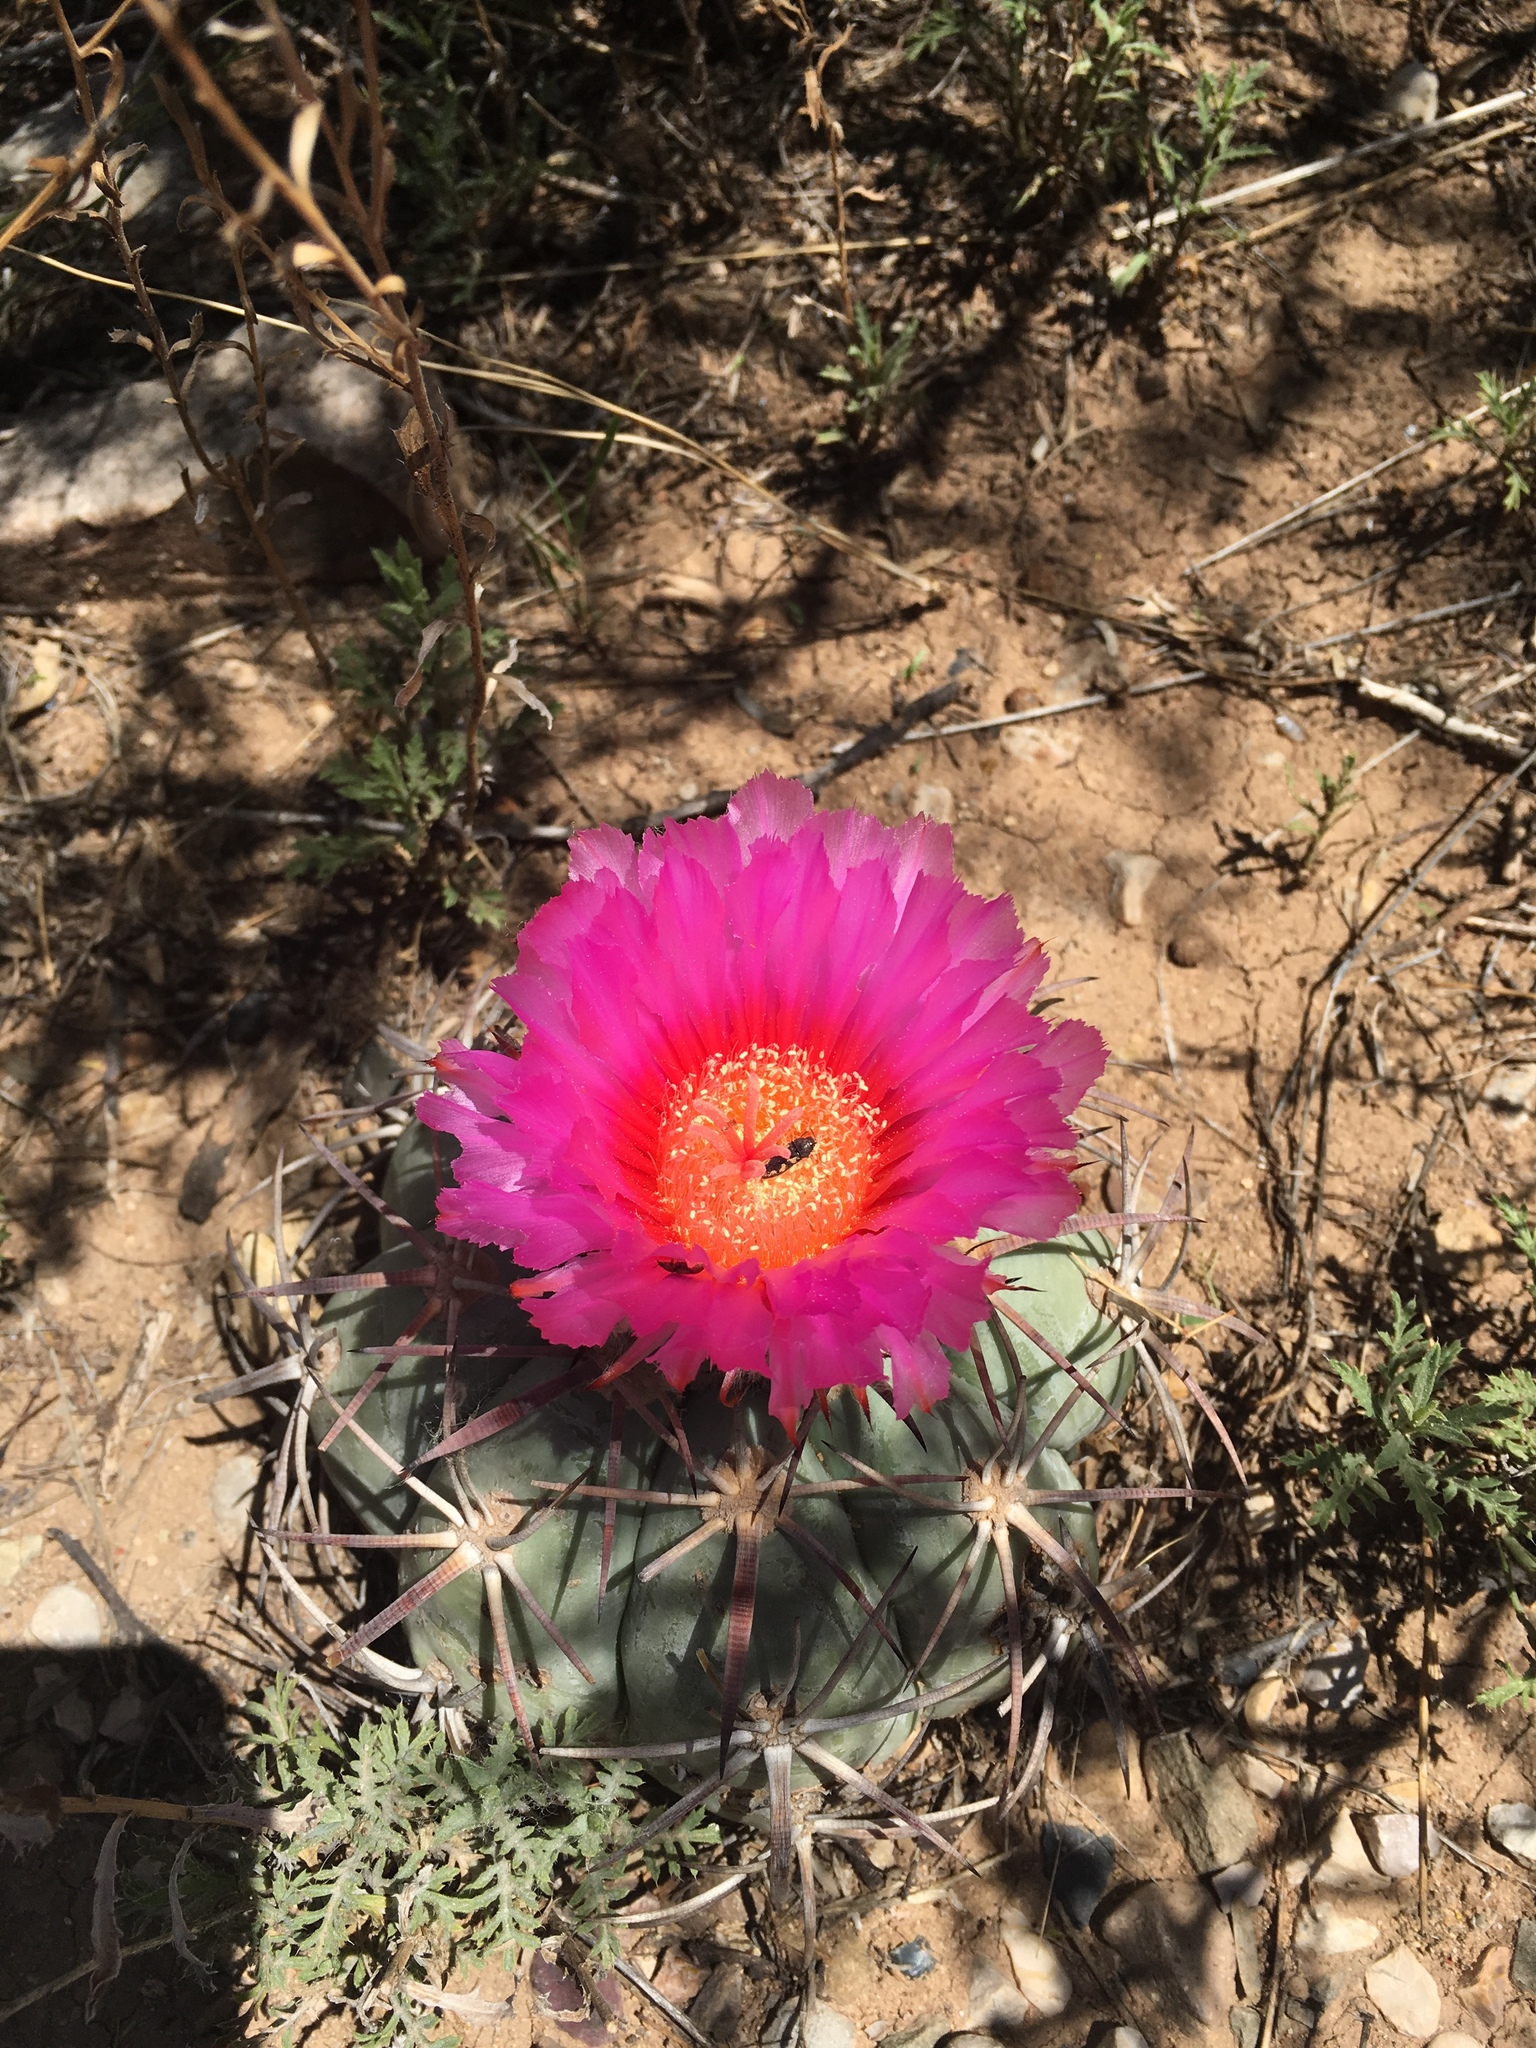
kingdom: Plantae
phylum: Tracheophyta
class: Magnoliopsida
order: Caryophyllales
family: Cactaceae
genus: Echinocactus
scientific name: Echinocactus horizonthalonius
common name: Devilshead
